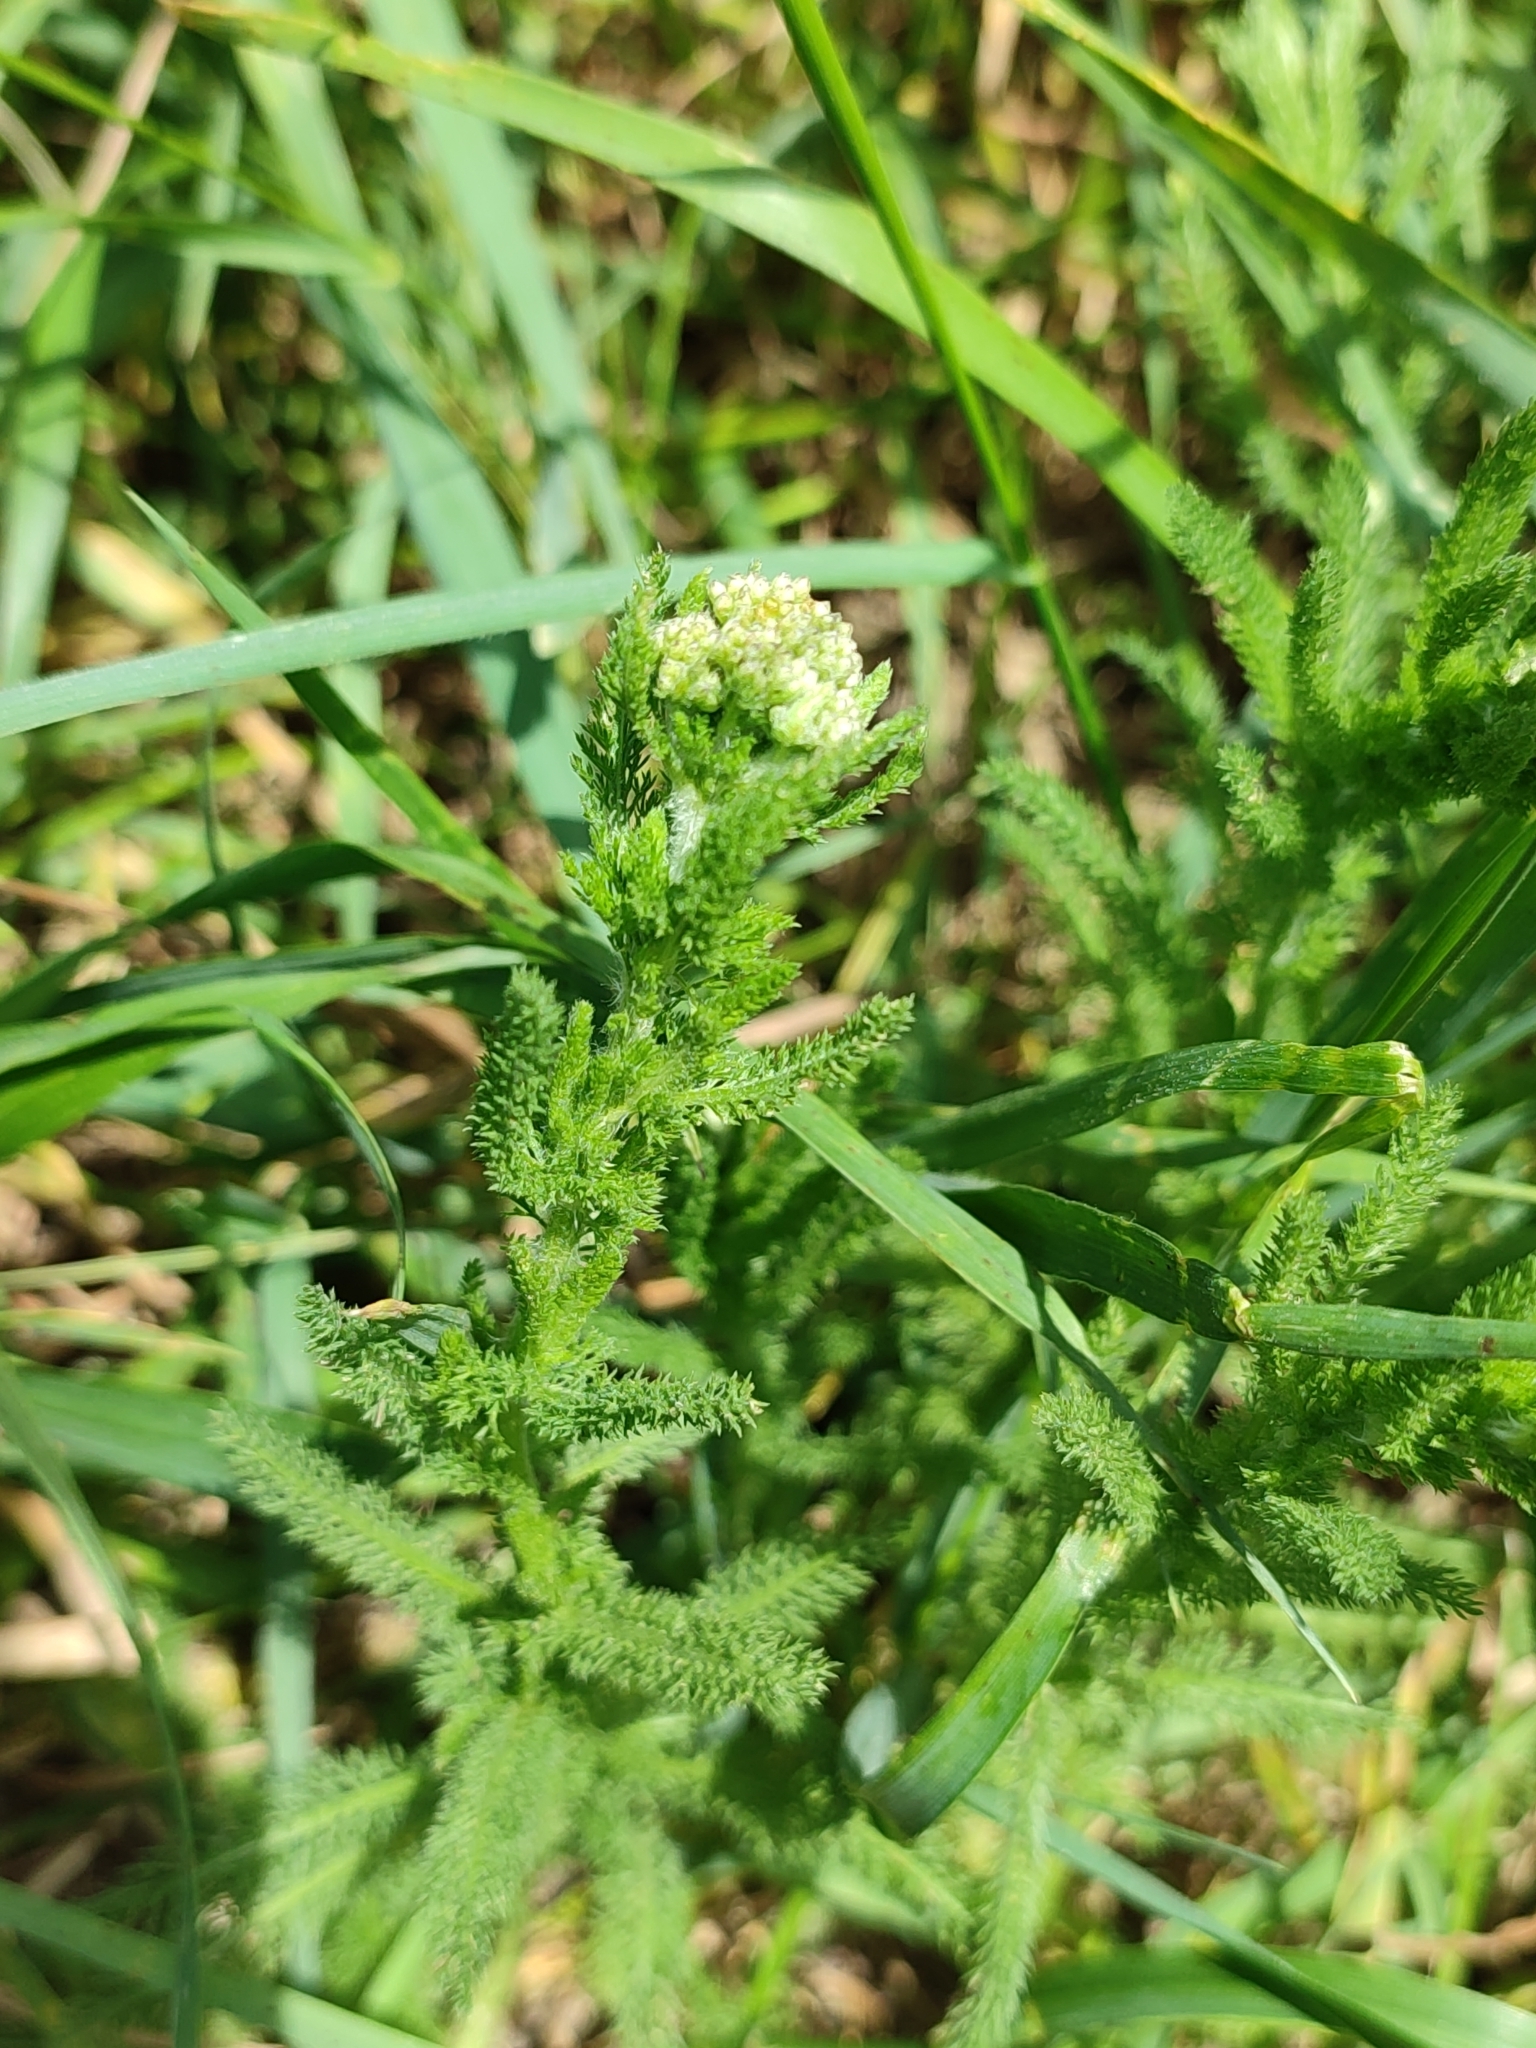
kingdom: Plantae
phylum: Tracheophyta
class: Magnoliopsida
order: Asterales
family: Asteraceae
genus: Achillea
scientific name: Achillea setacea
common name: Bristly yarrow
